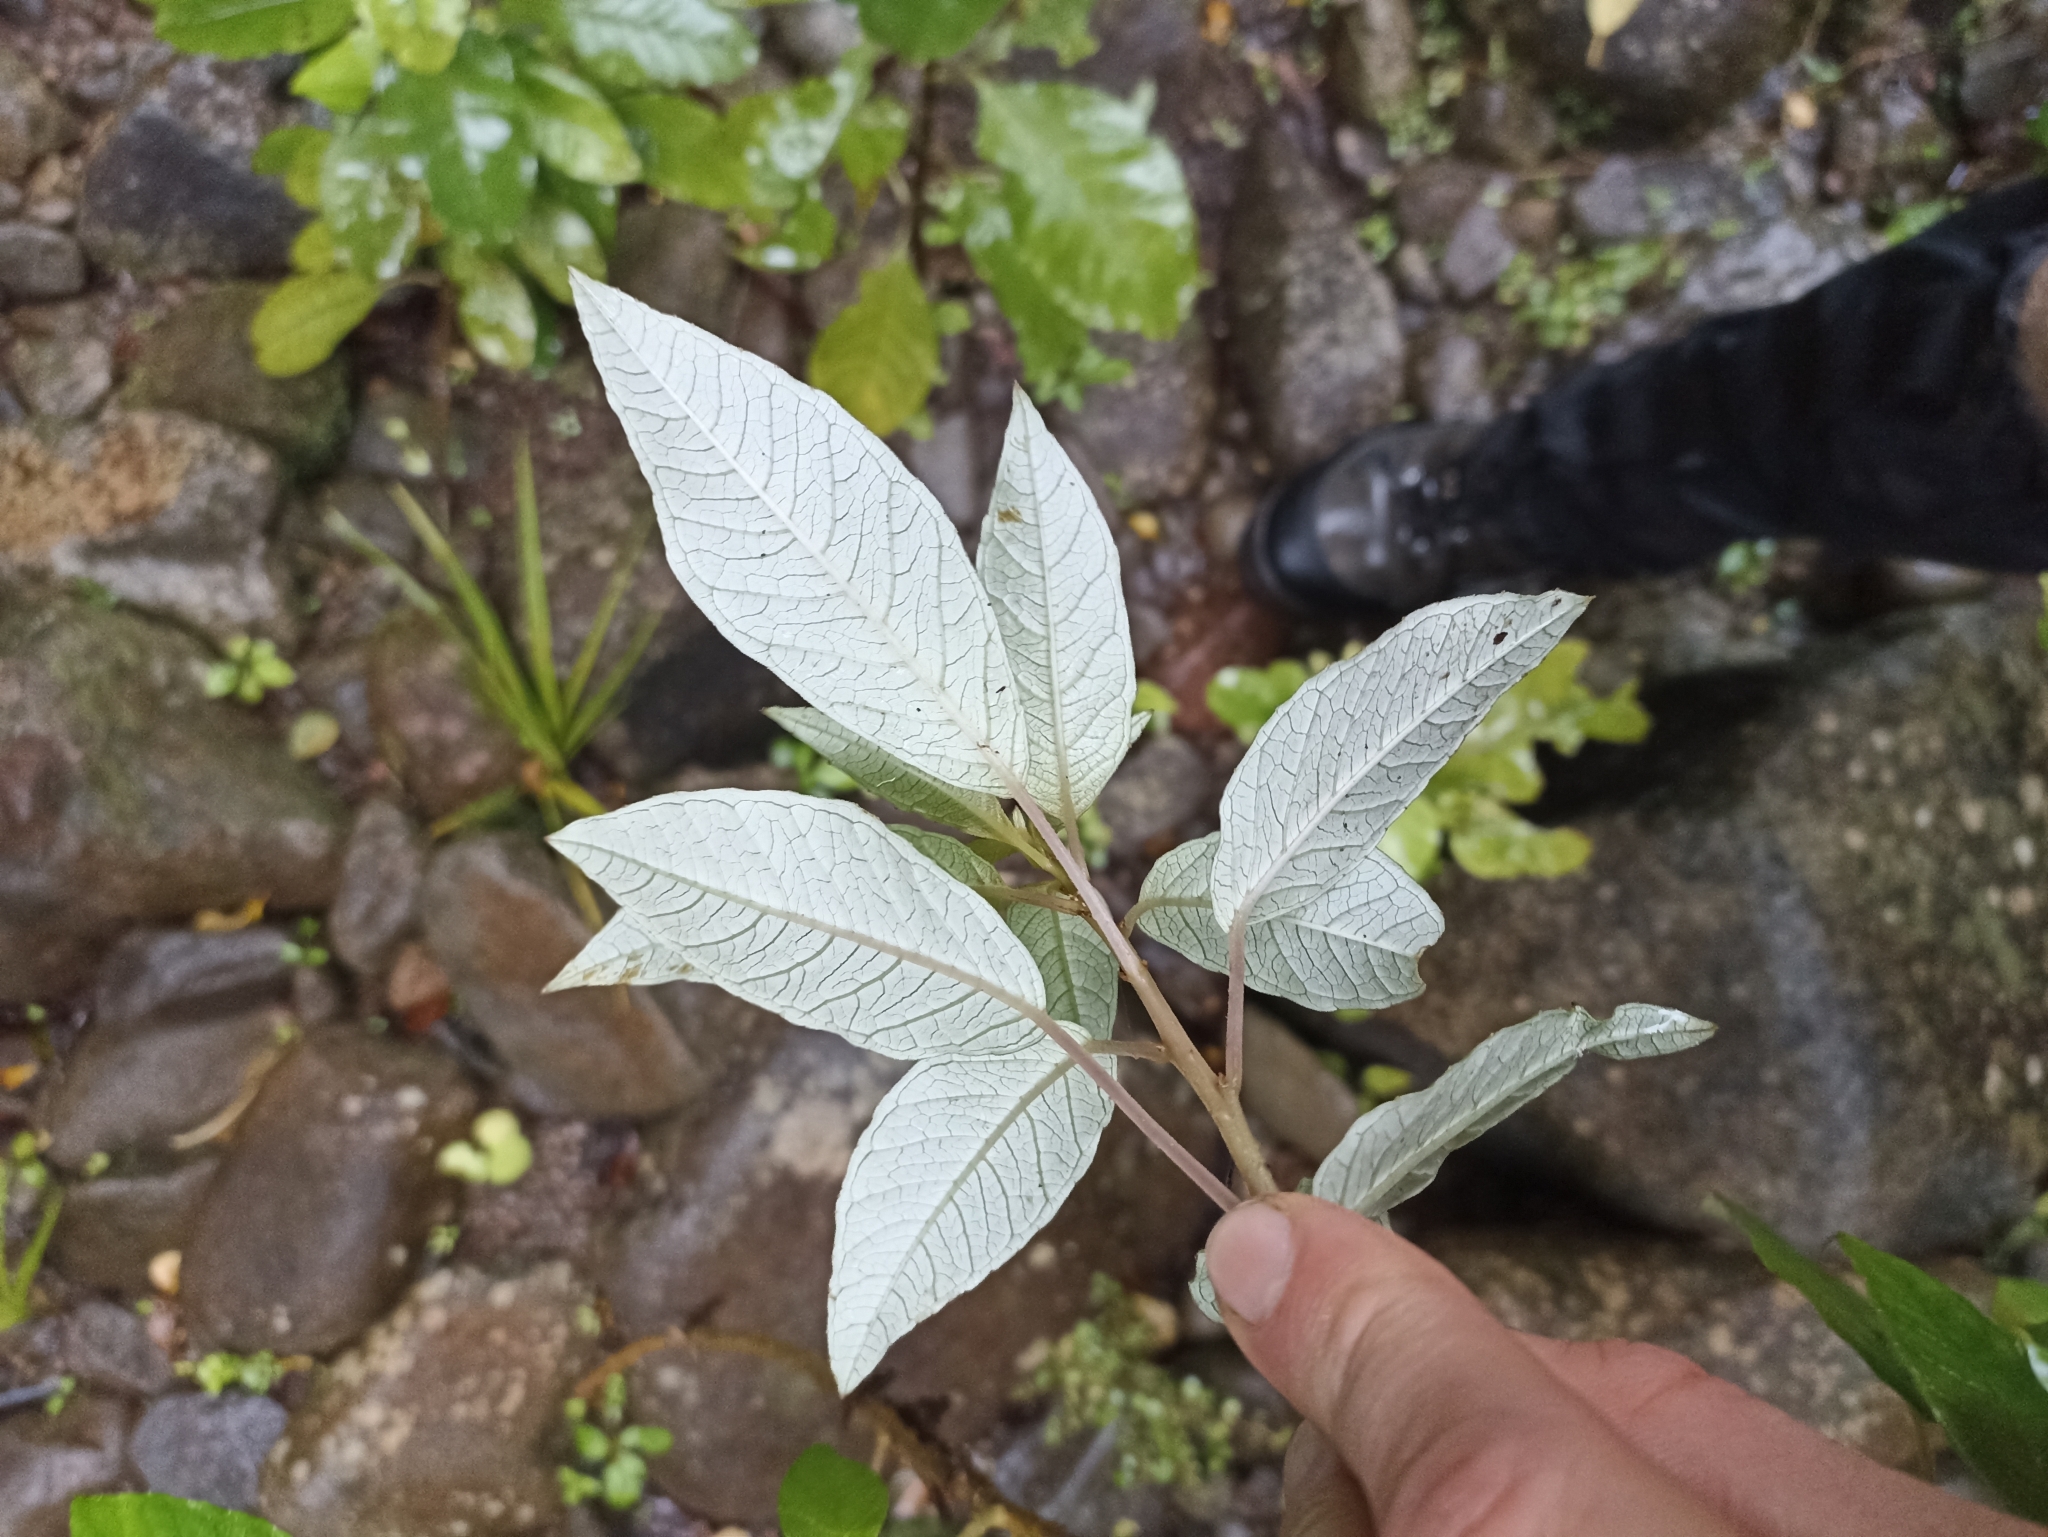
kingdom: Plantae
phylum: Tracheophyta
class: Magnoliopsida
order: Myrtales
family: Onagraceae
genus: Fuchsia
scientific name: Fuchsia excorticata
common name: Tree fuchsia
